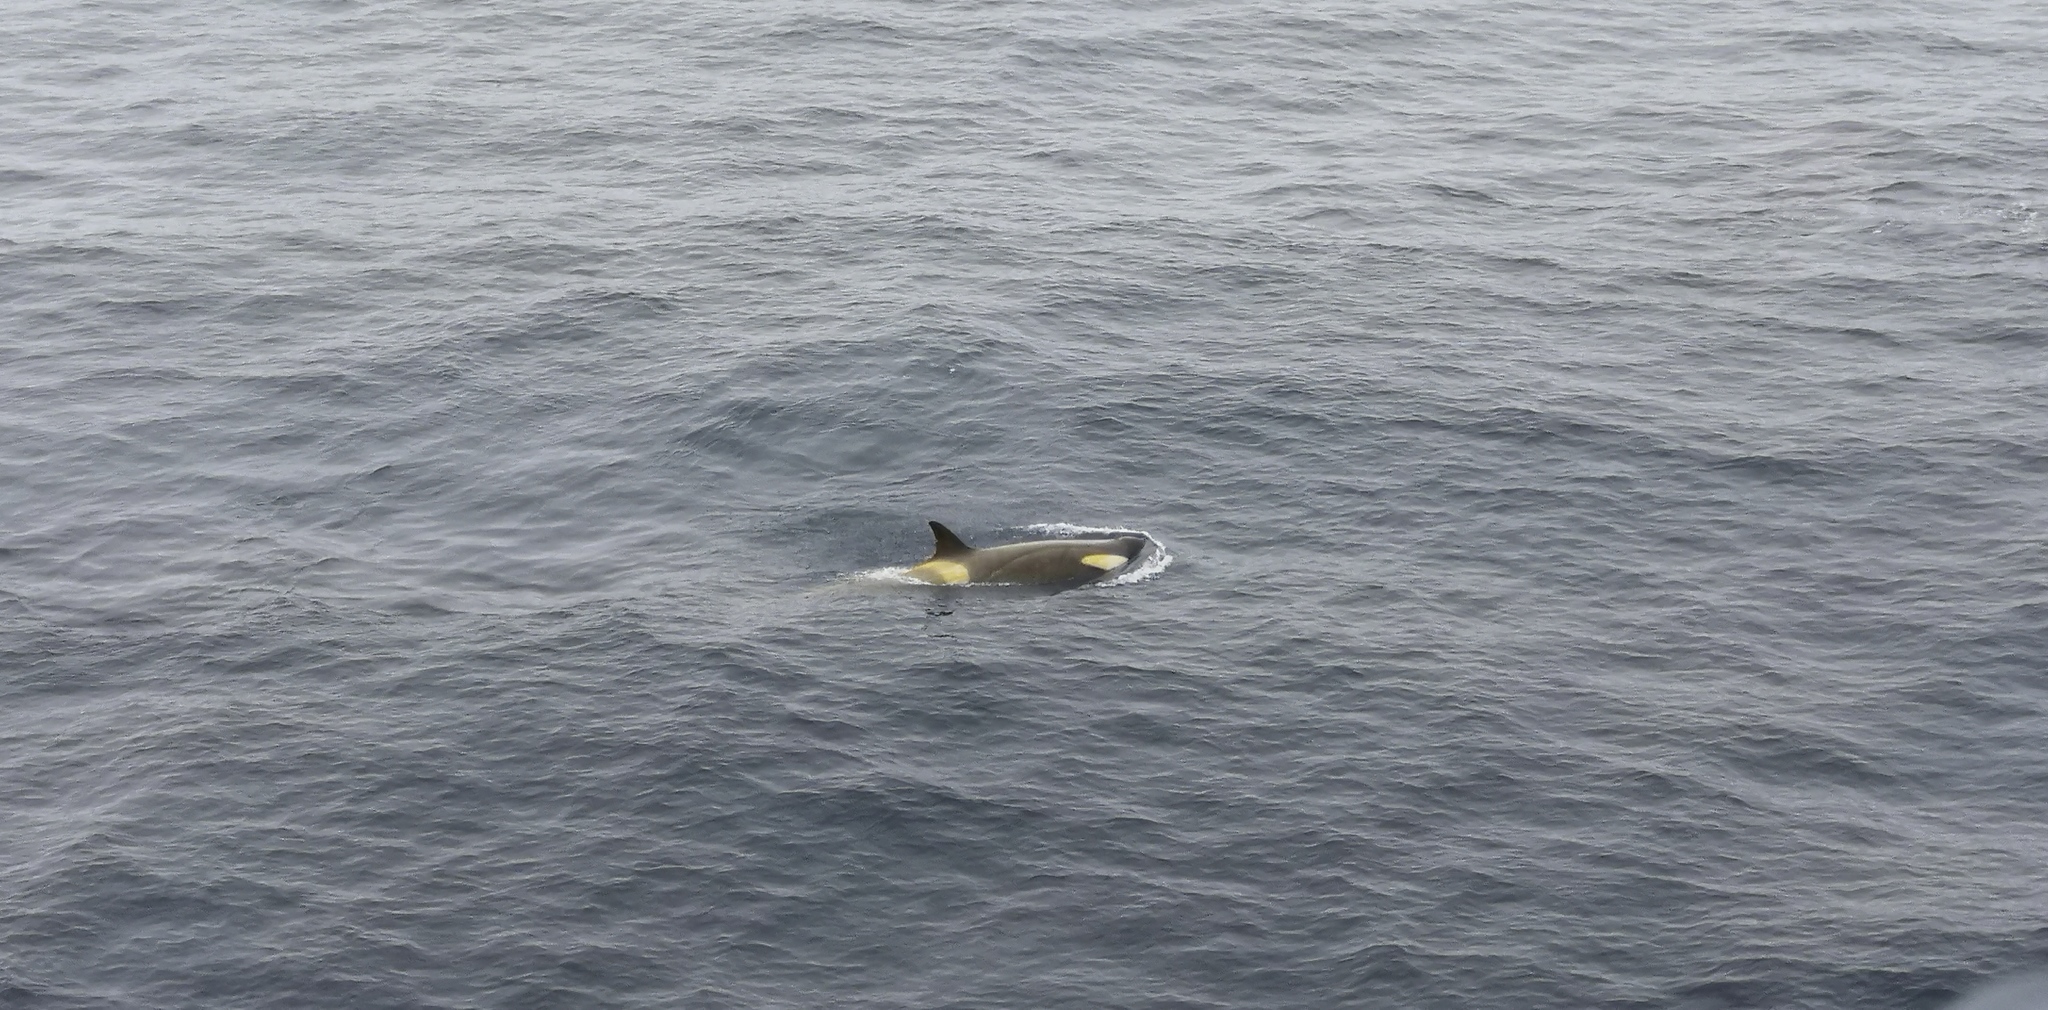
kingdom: Animalia
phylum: Chordata
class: Mammalia
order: Cetacea
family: Delphinidae
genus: Orcinus
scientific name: Orcinus orca
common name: Killer whale
